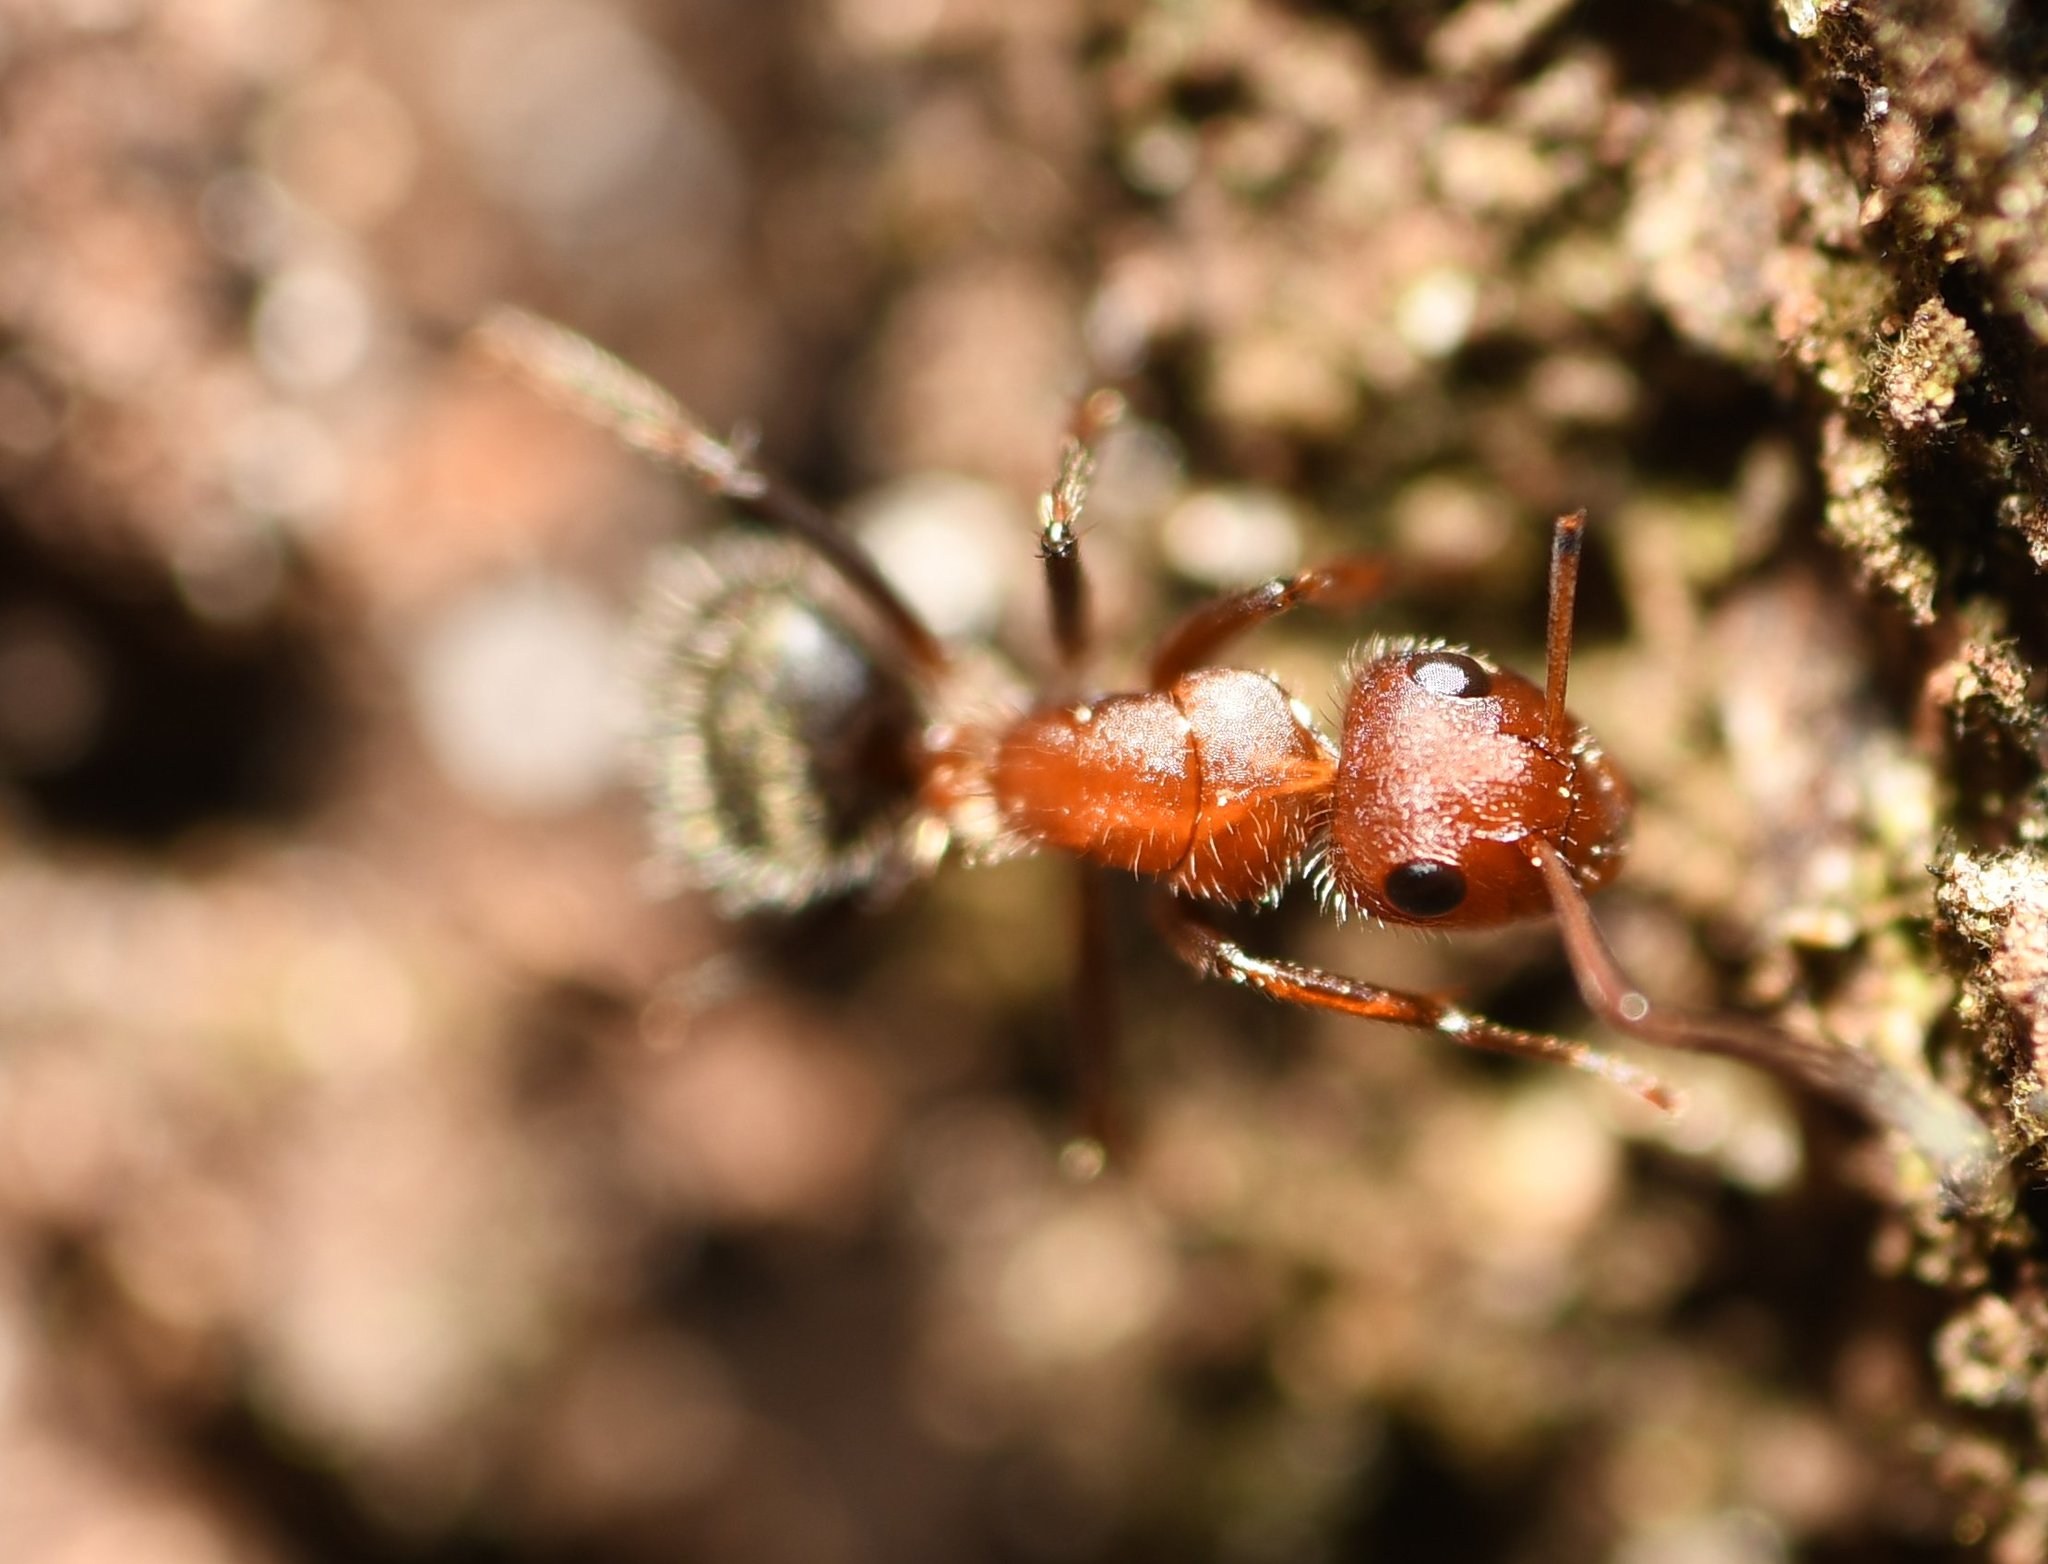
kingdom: Animalia
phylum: Arthropoda
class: Insecta
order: Hymenoptera
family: Formicidae
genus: Camponotus
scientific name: Camponotus planatus
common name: Compact carpenter ant
